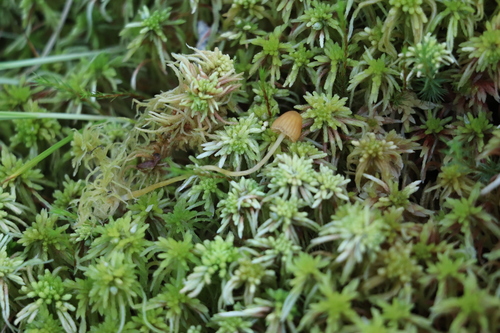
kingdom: Fungi
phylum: Basidiomycota
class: Agaricomycetes
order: Agaricales
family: Hymenogastraceae
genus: Galerina
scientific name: Galerina calyptrata
